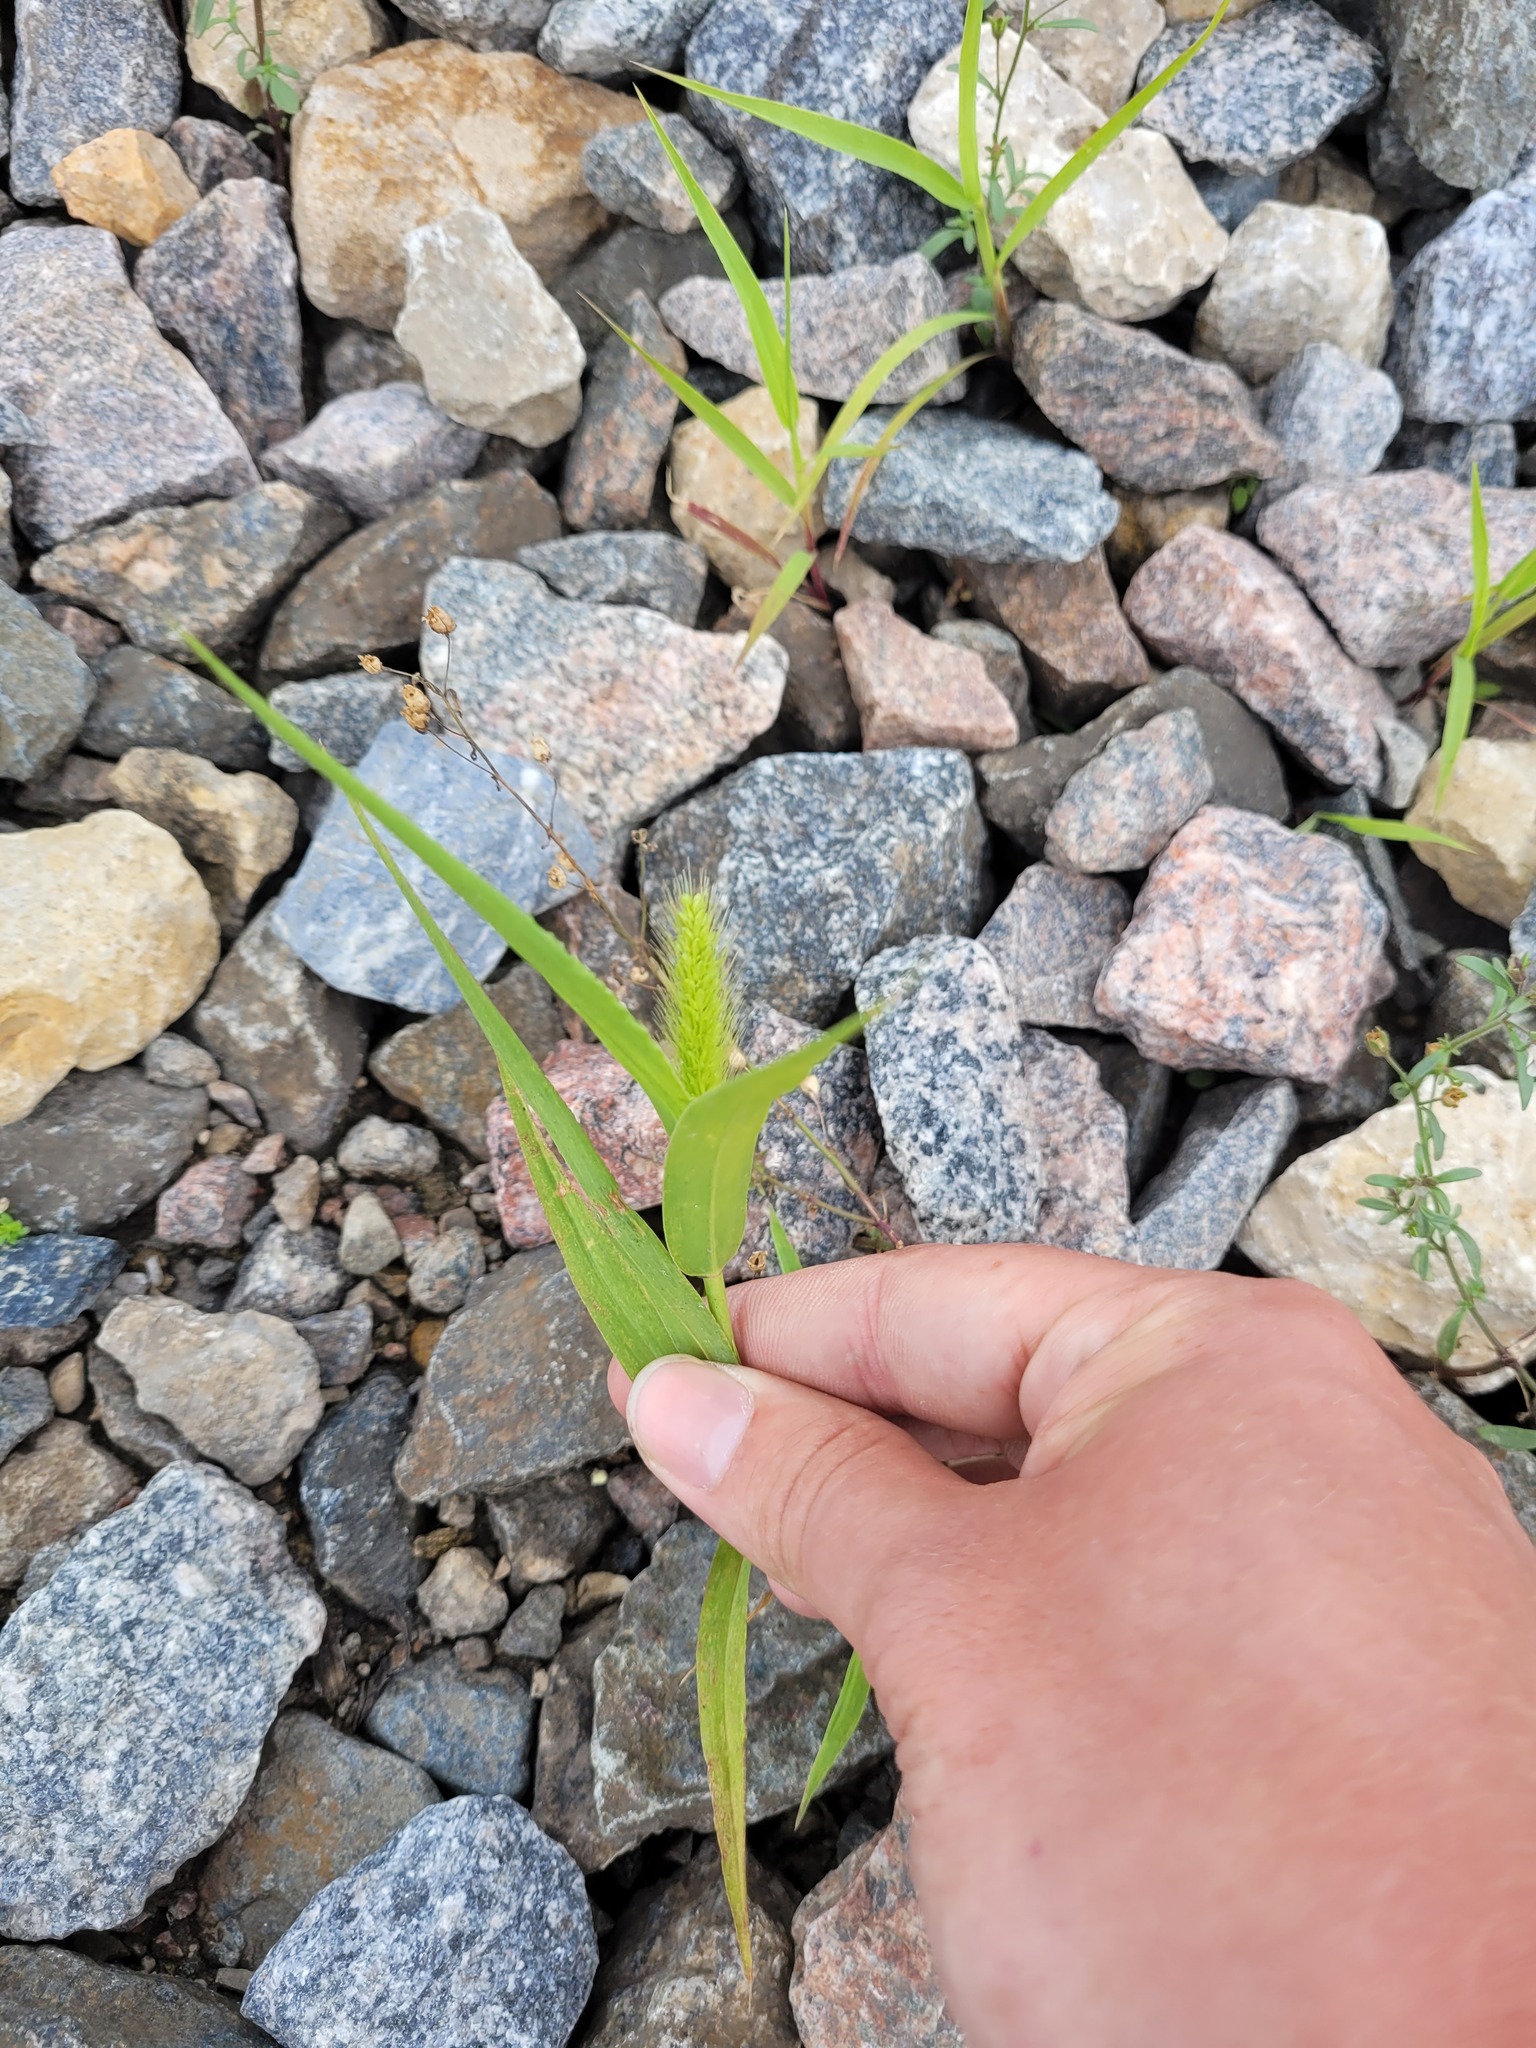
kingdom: Plantae
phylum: Tracheophyta
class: Liliopsida
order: Poales
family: Poaceae
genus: Setaria
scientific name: Setaria viridis
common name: Green bristlegrass
